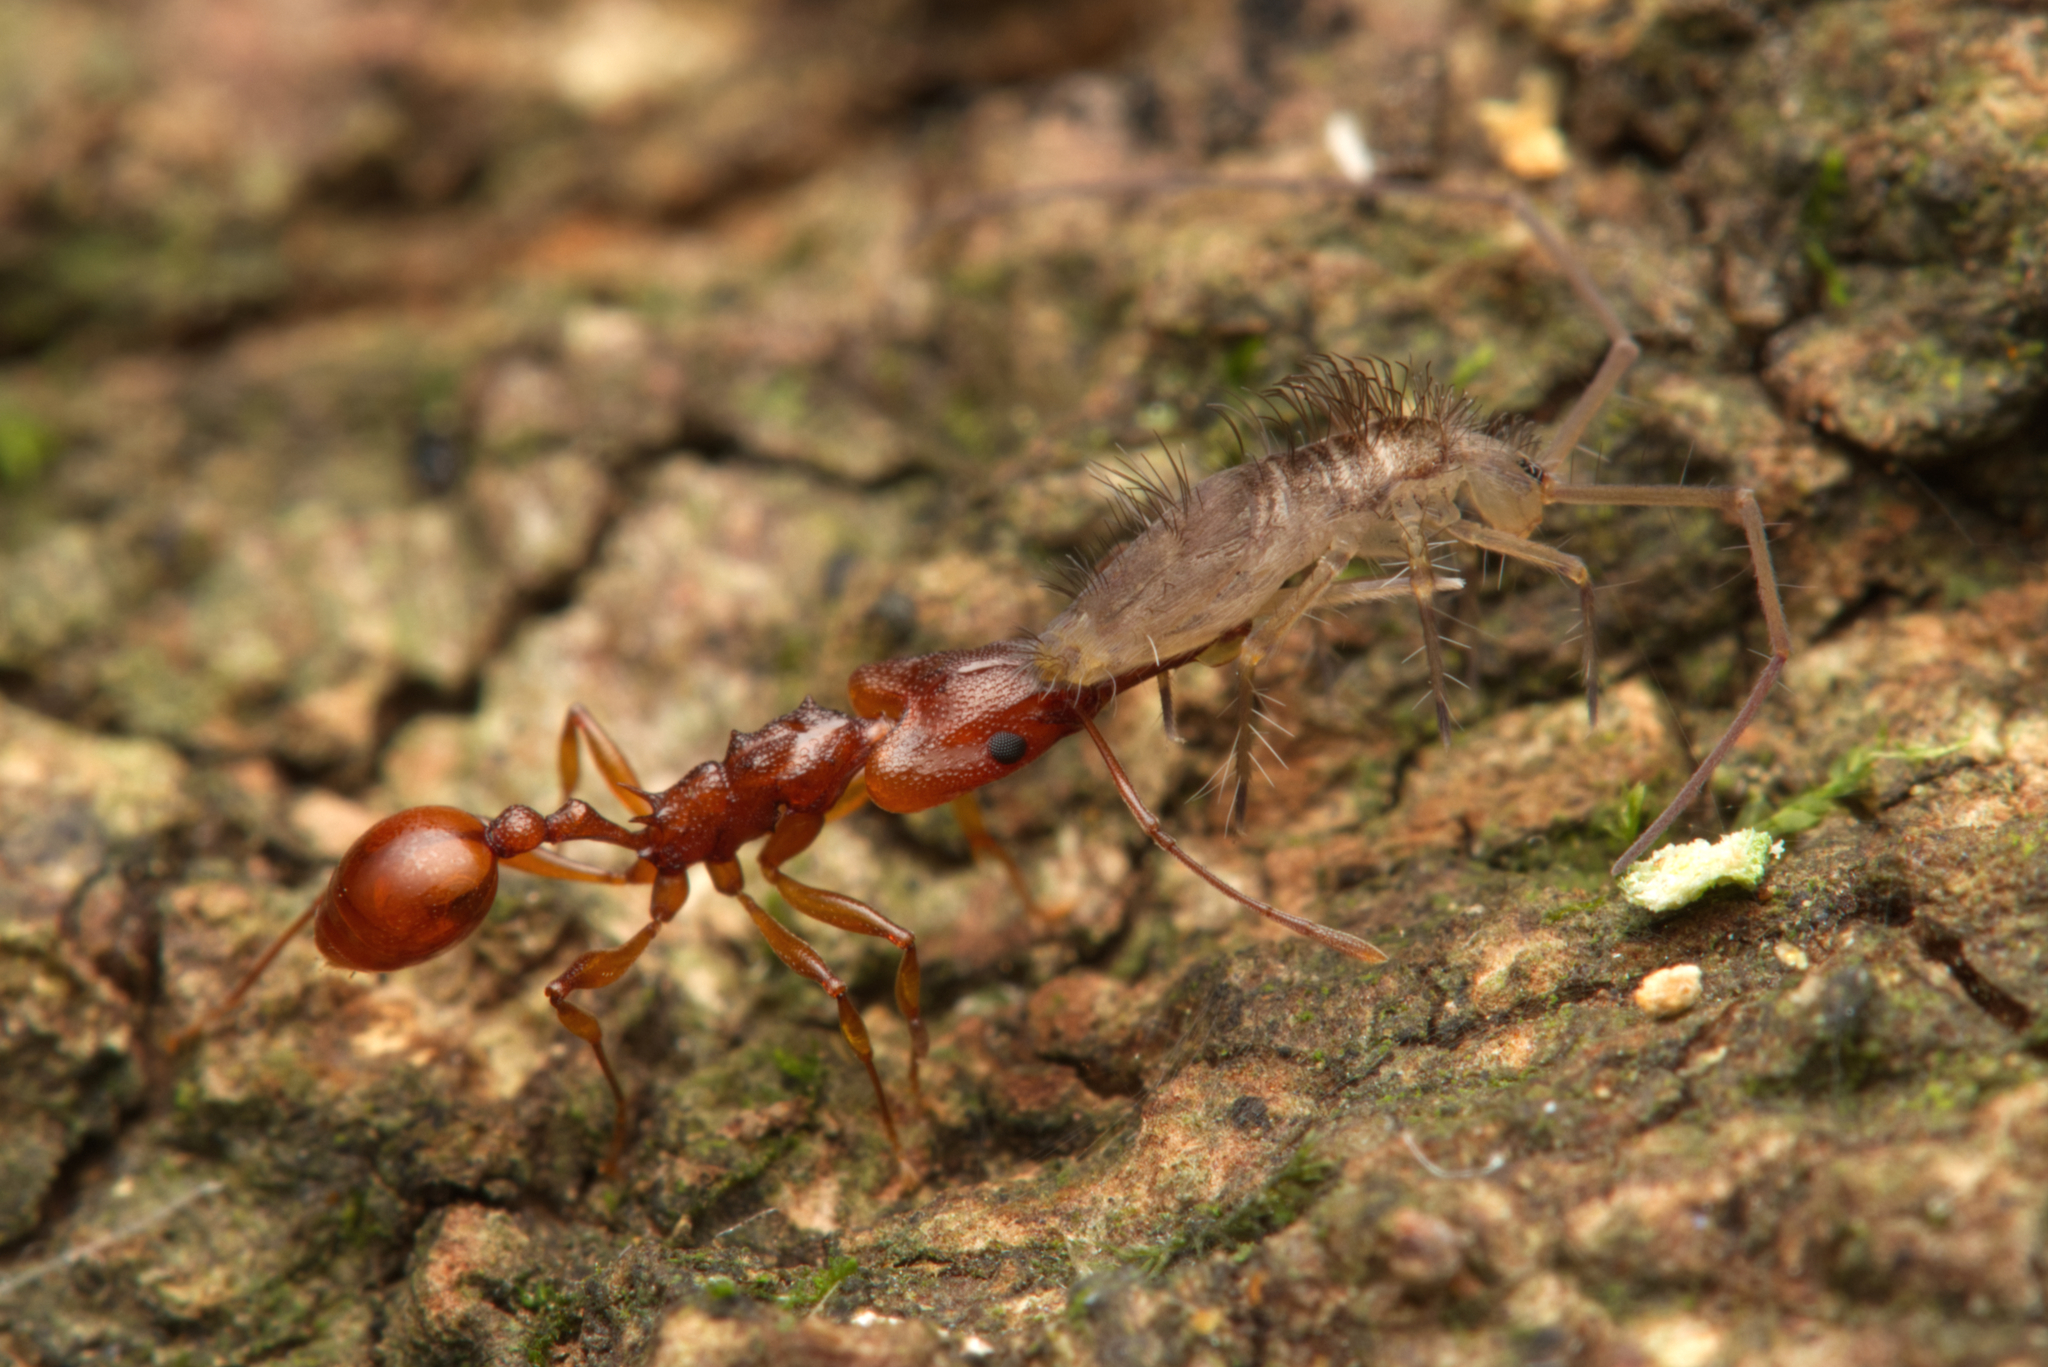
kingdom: Animalia
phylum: Arthropoda
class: Insecta
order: Hymenoptera
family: Formicidae
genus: Orectognathus
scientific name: Orectognathus antennatus
